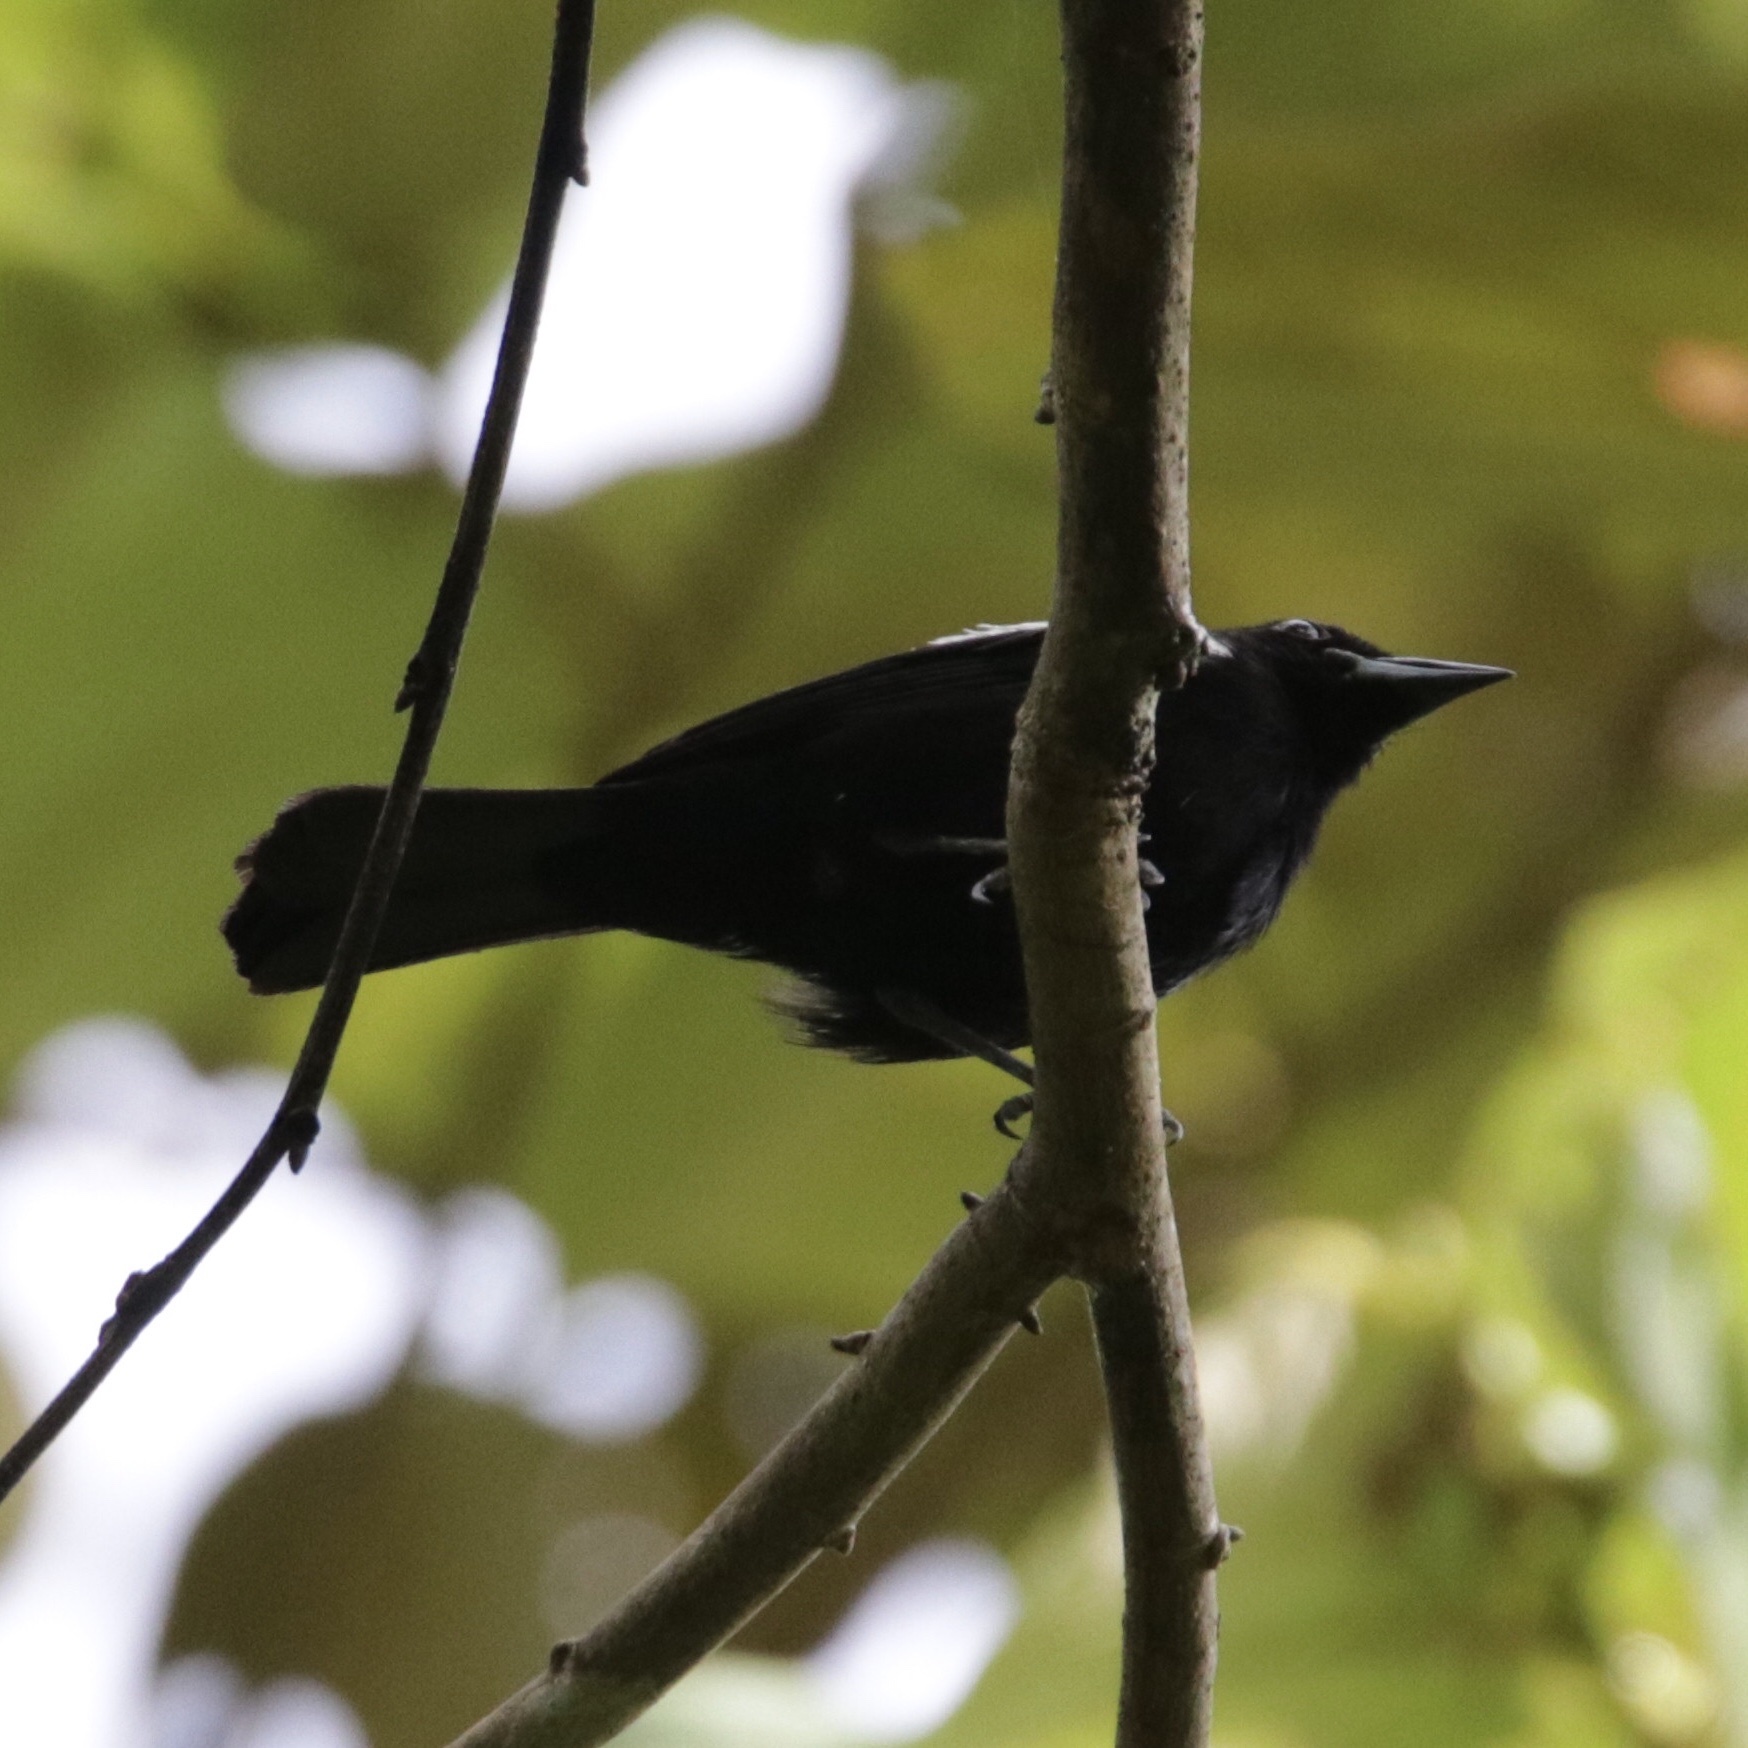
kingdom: Animalia
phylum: Chordata
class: Aves
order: Passeriformes
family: Thraupidae
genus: Loriotus
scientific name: Loriotus luctuosus
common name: White-shouldered tanager
